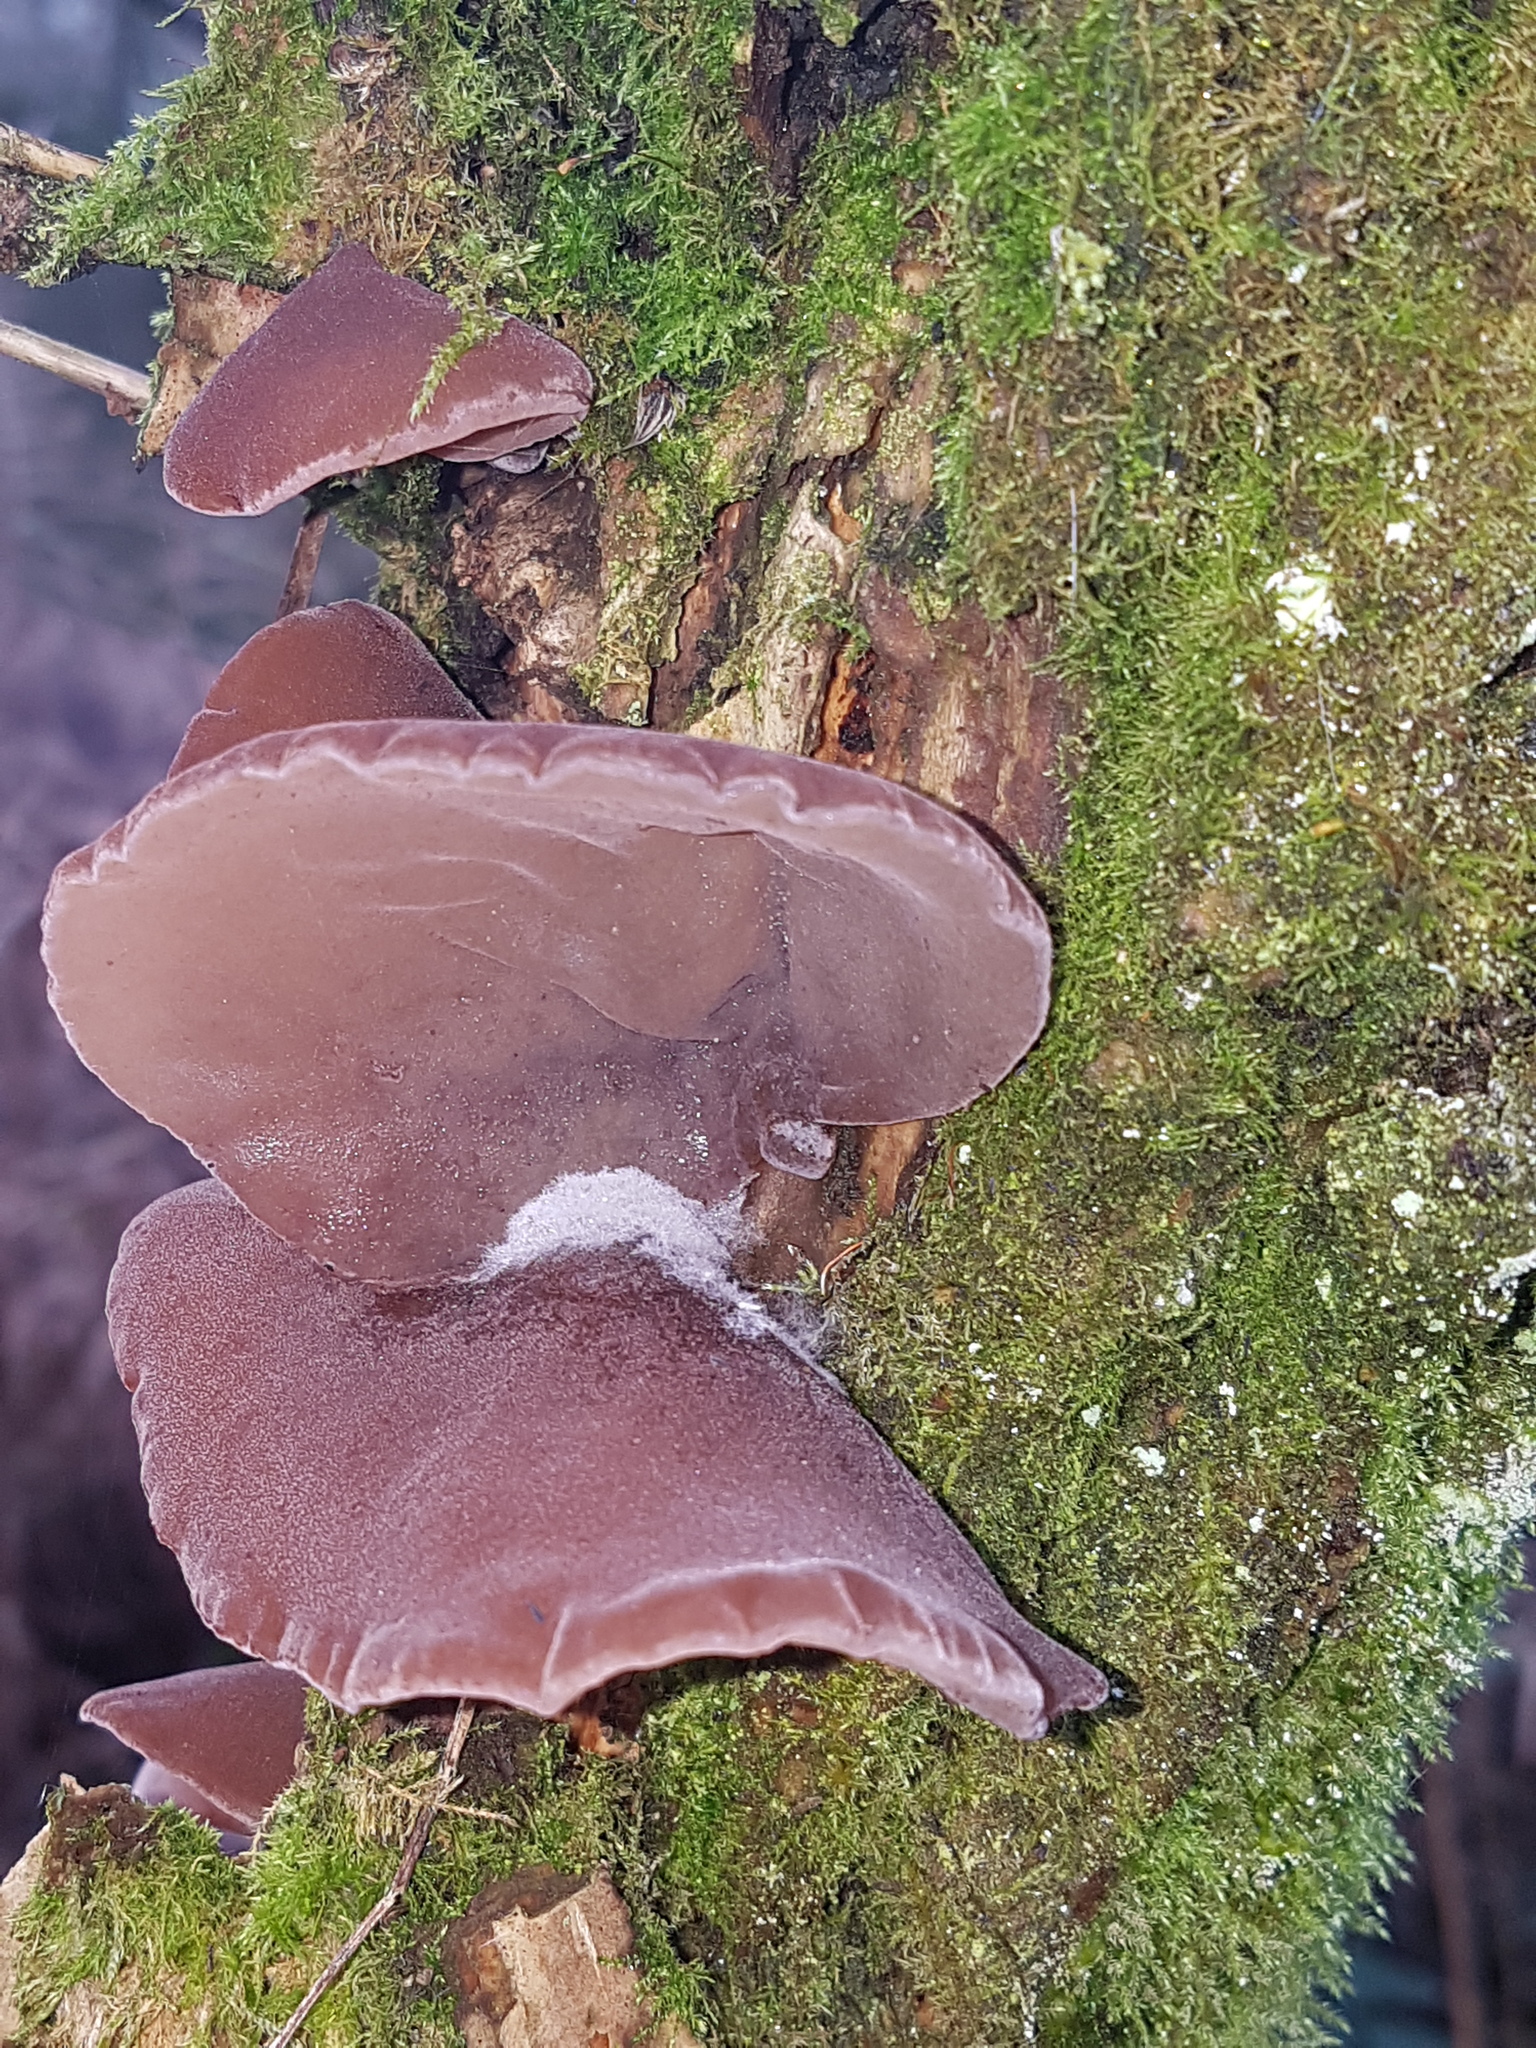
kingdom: Fungi
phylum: Basidiomycota
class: Agaricomycetes
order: Auriculariales
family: Auriculariaceae
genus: Auricularia
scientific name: Auricularia auricula-judae
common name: Jelly ear
